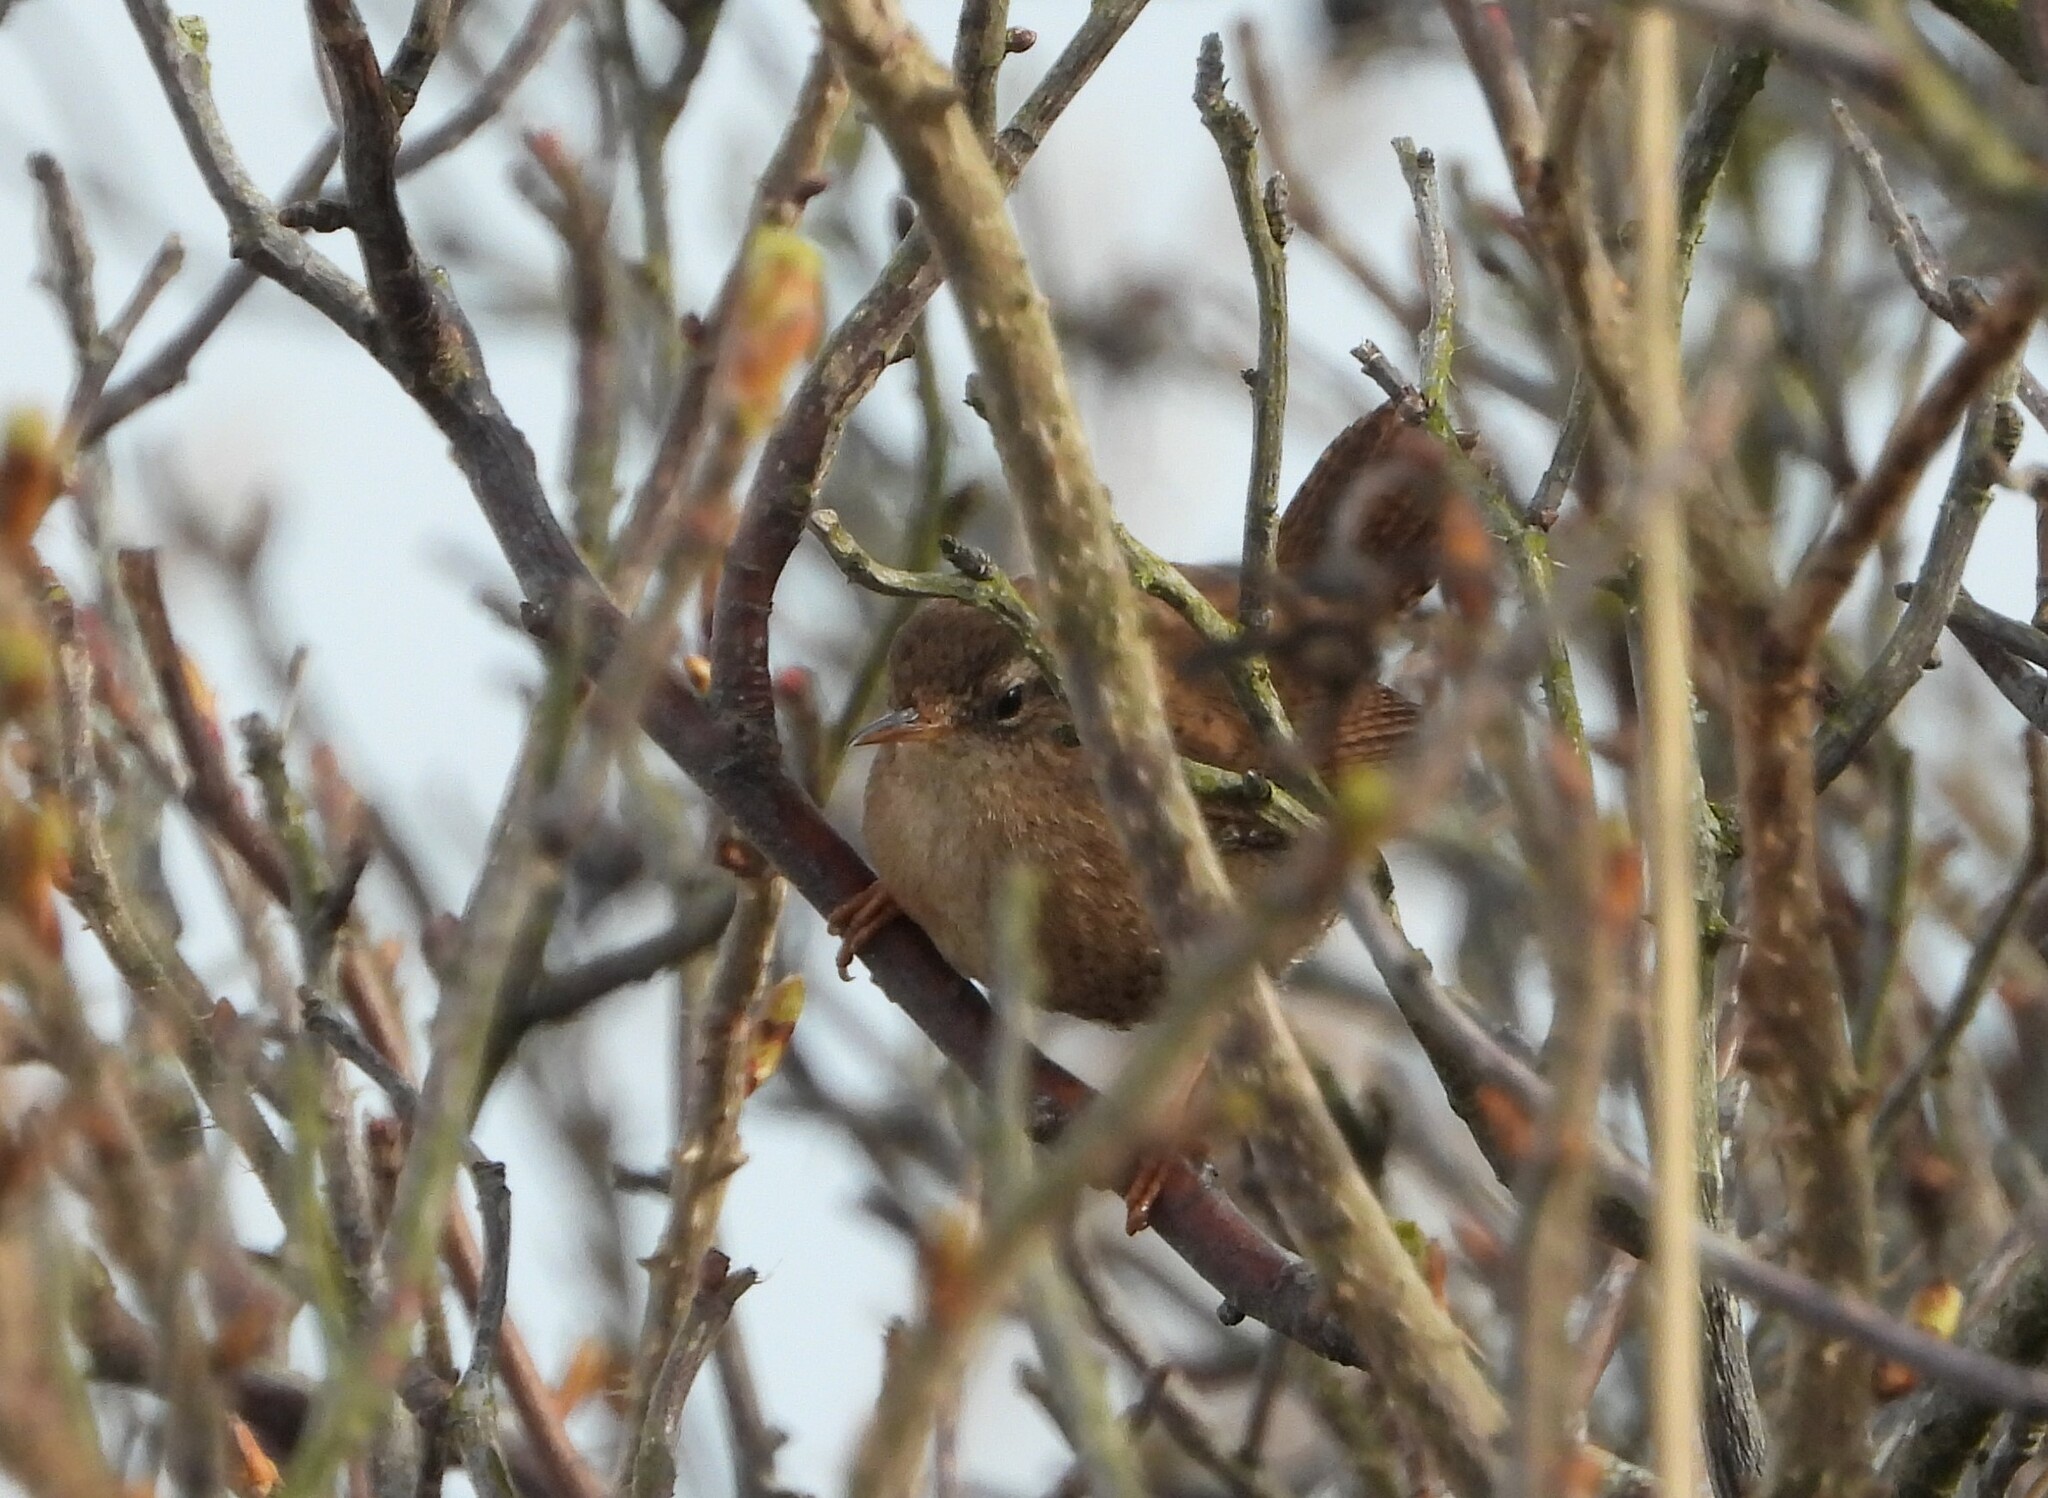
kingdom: Animalia
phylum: Chordata
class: Aves
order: Passeriformes
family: Troglodytidae
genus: Troglodytes
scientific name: Troglodytes troglodytes
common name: Eurasian wren
